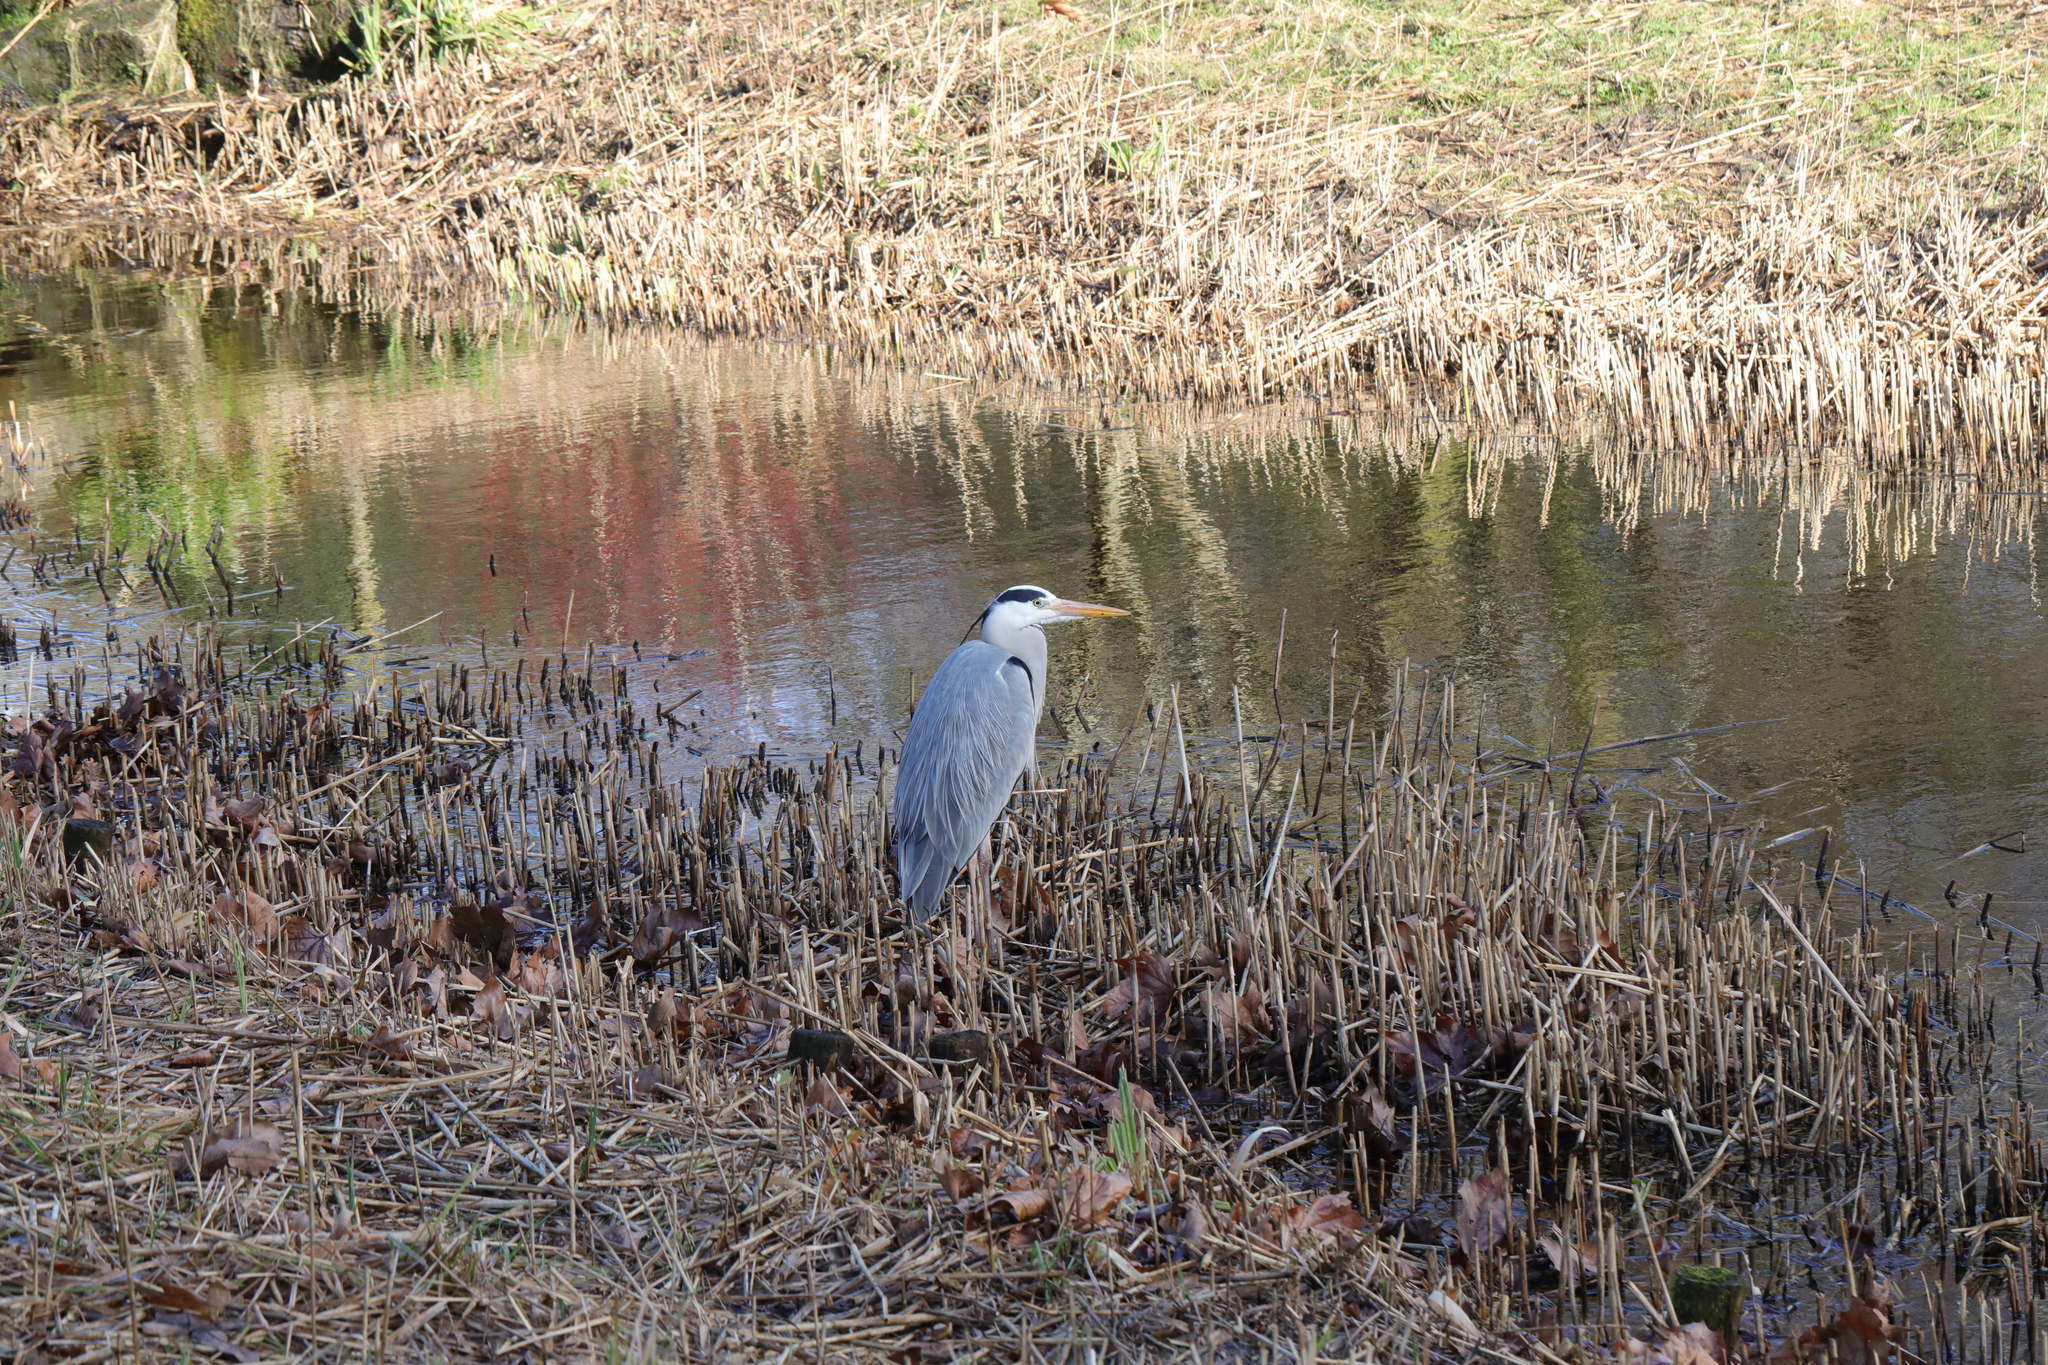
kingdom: Animalia
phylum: Chordata
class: Aves
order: Pelecaniformes
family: Ardeidae
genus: Ardea
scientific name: Ardea cinerea
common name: Grey heron
